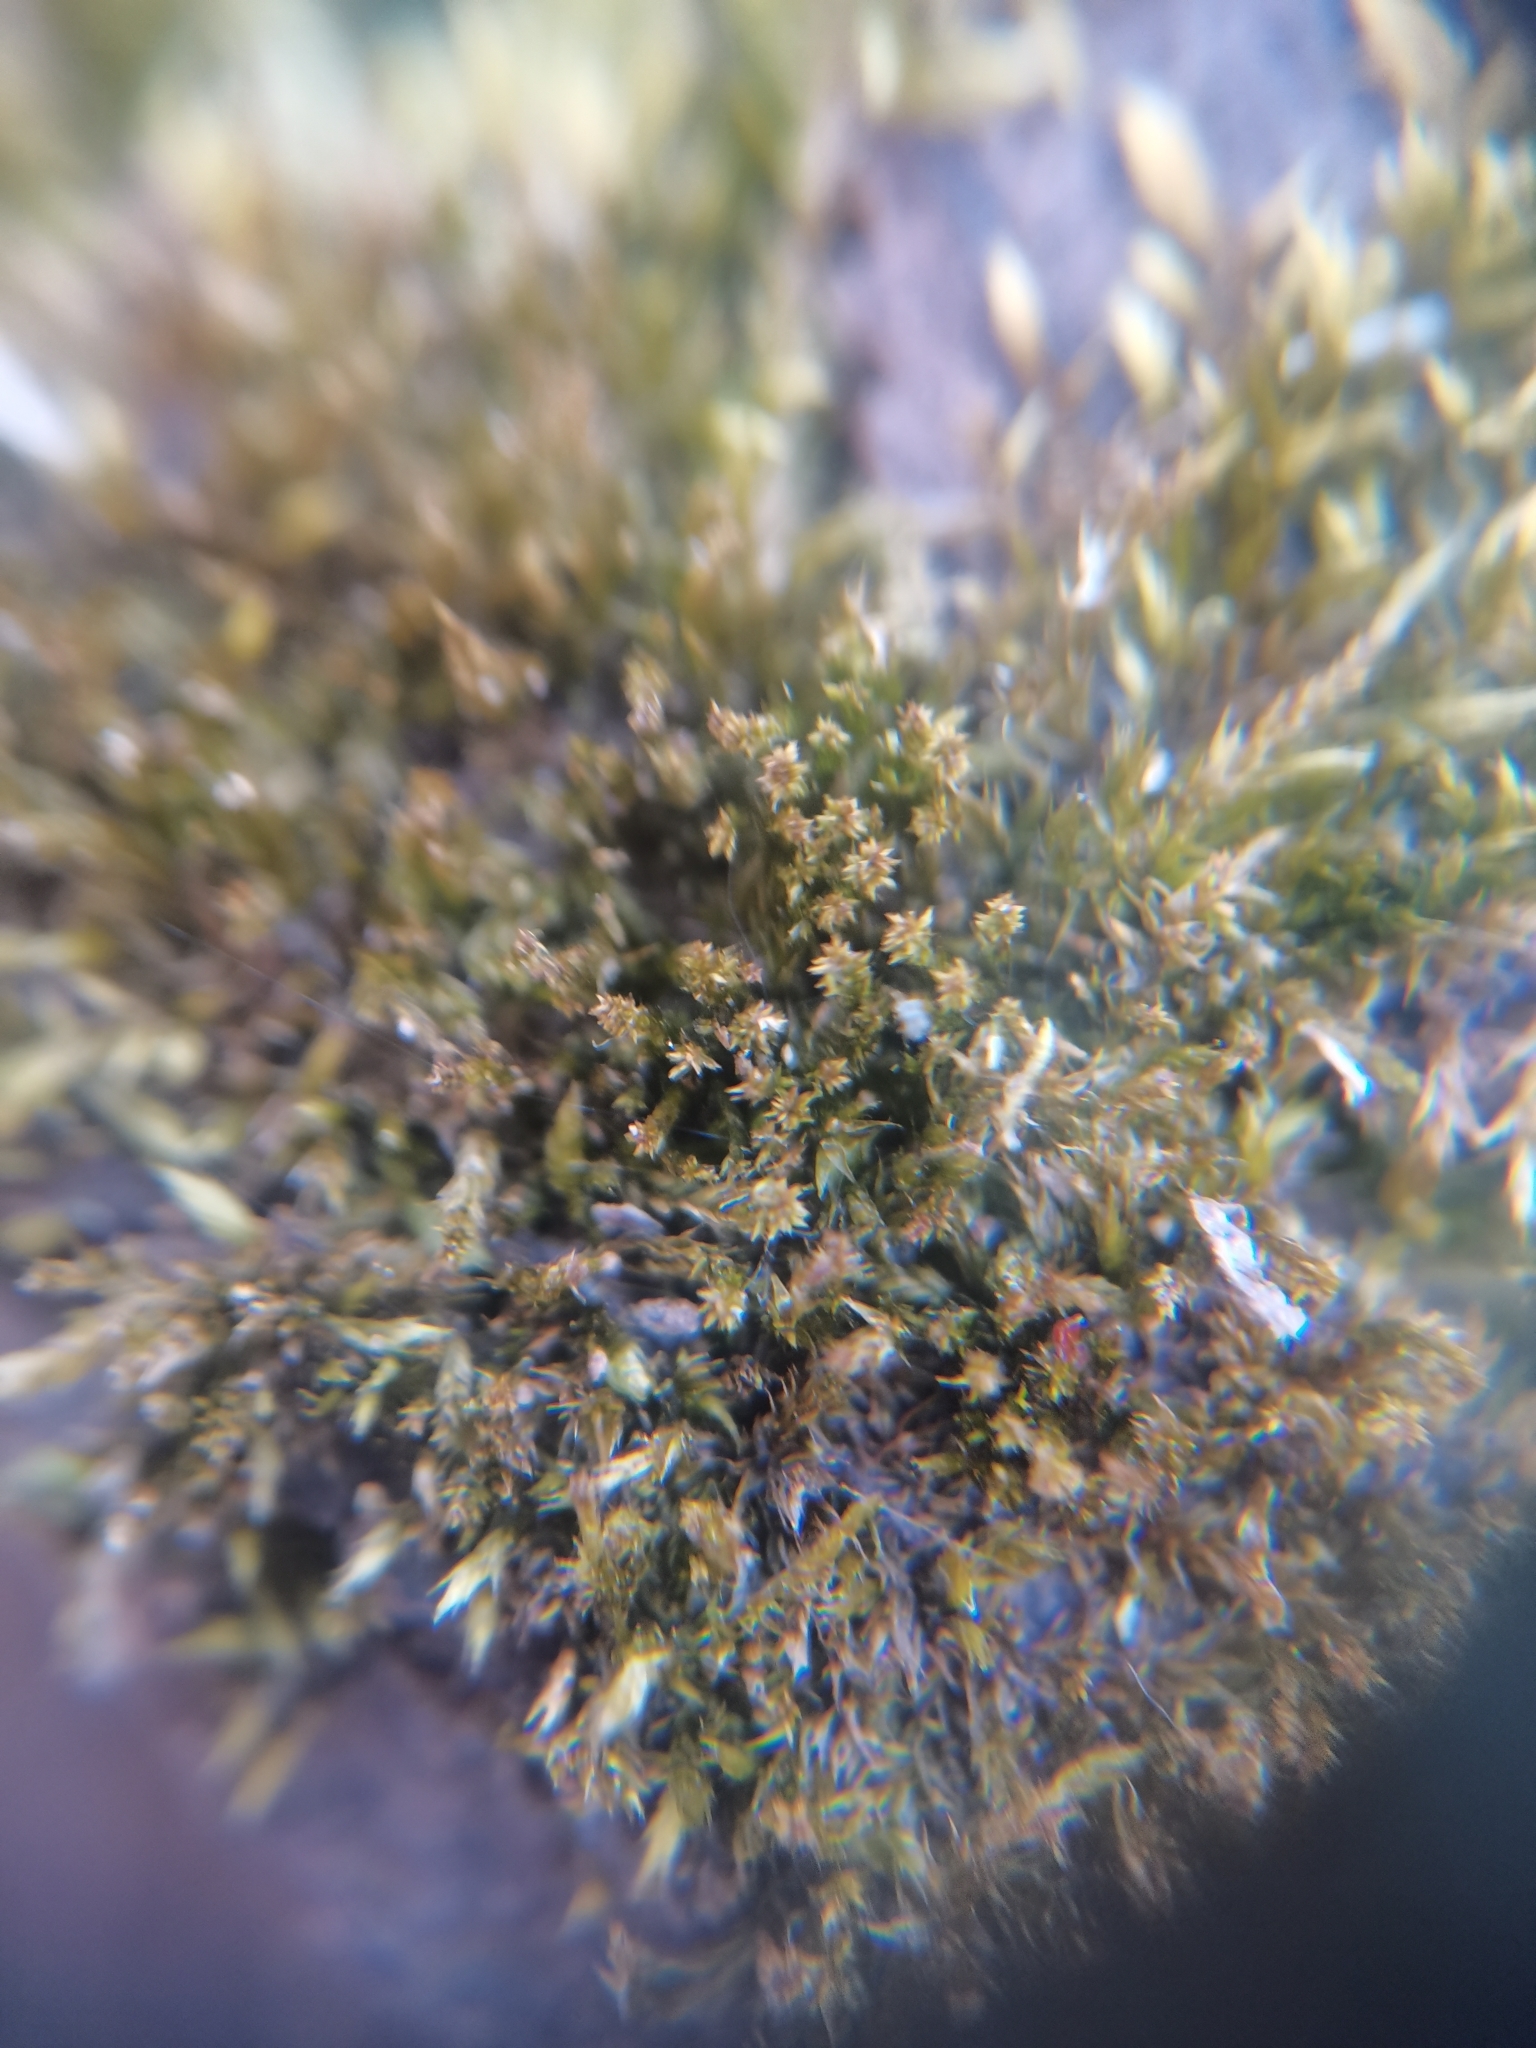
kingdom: Plantae
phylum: Bryophyta
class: Bryopsida
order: Hypnales
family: Pylaisiadelphaceae
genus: Platygyrium
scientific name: Platygyrium repens
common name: Flat-brocade moss
